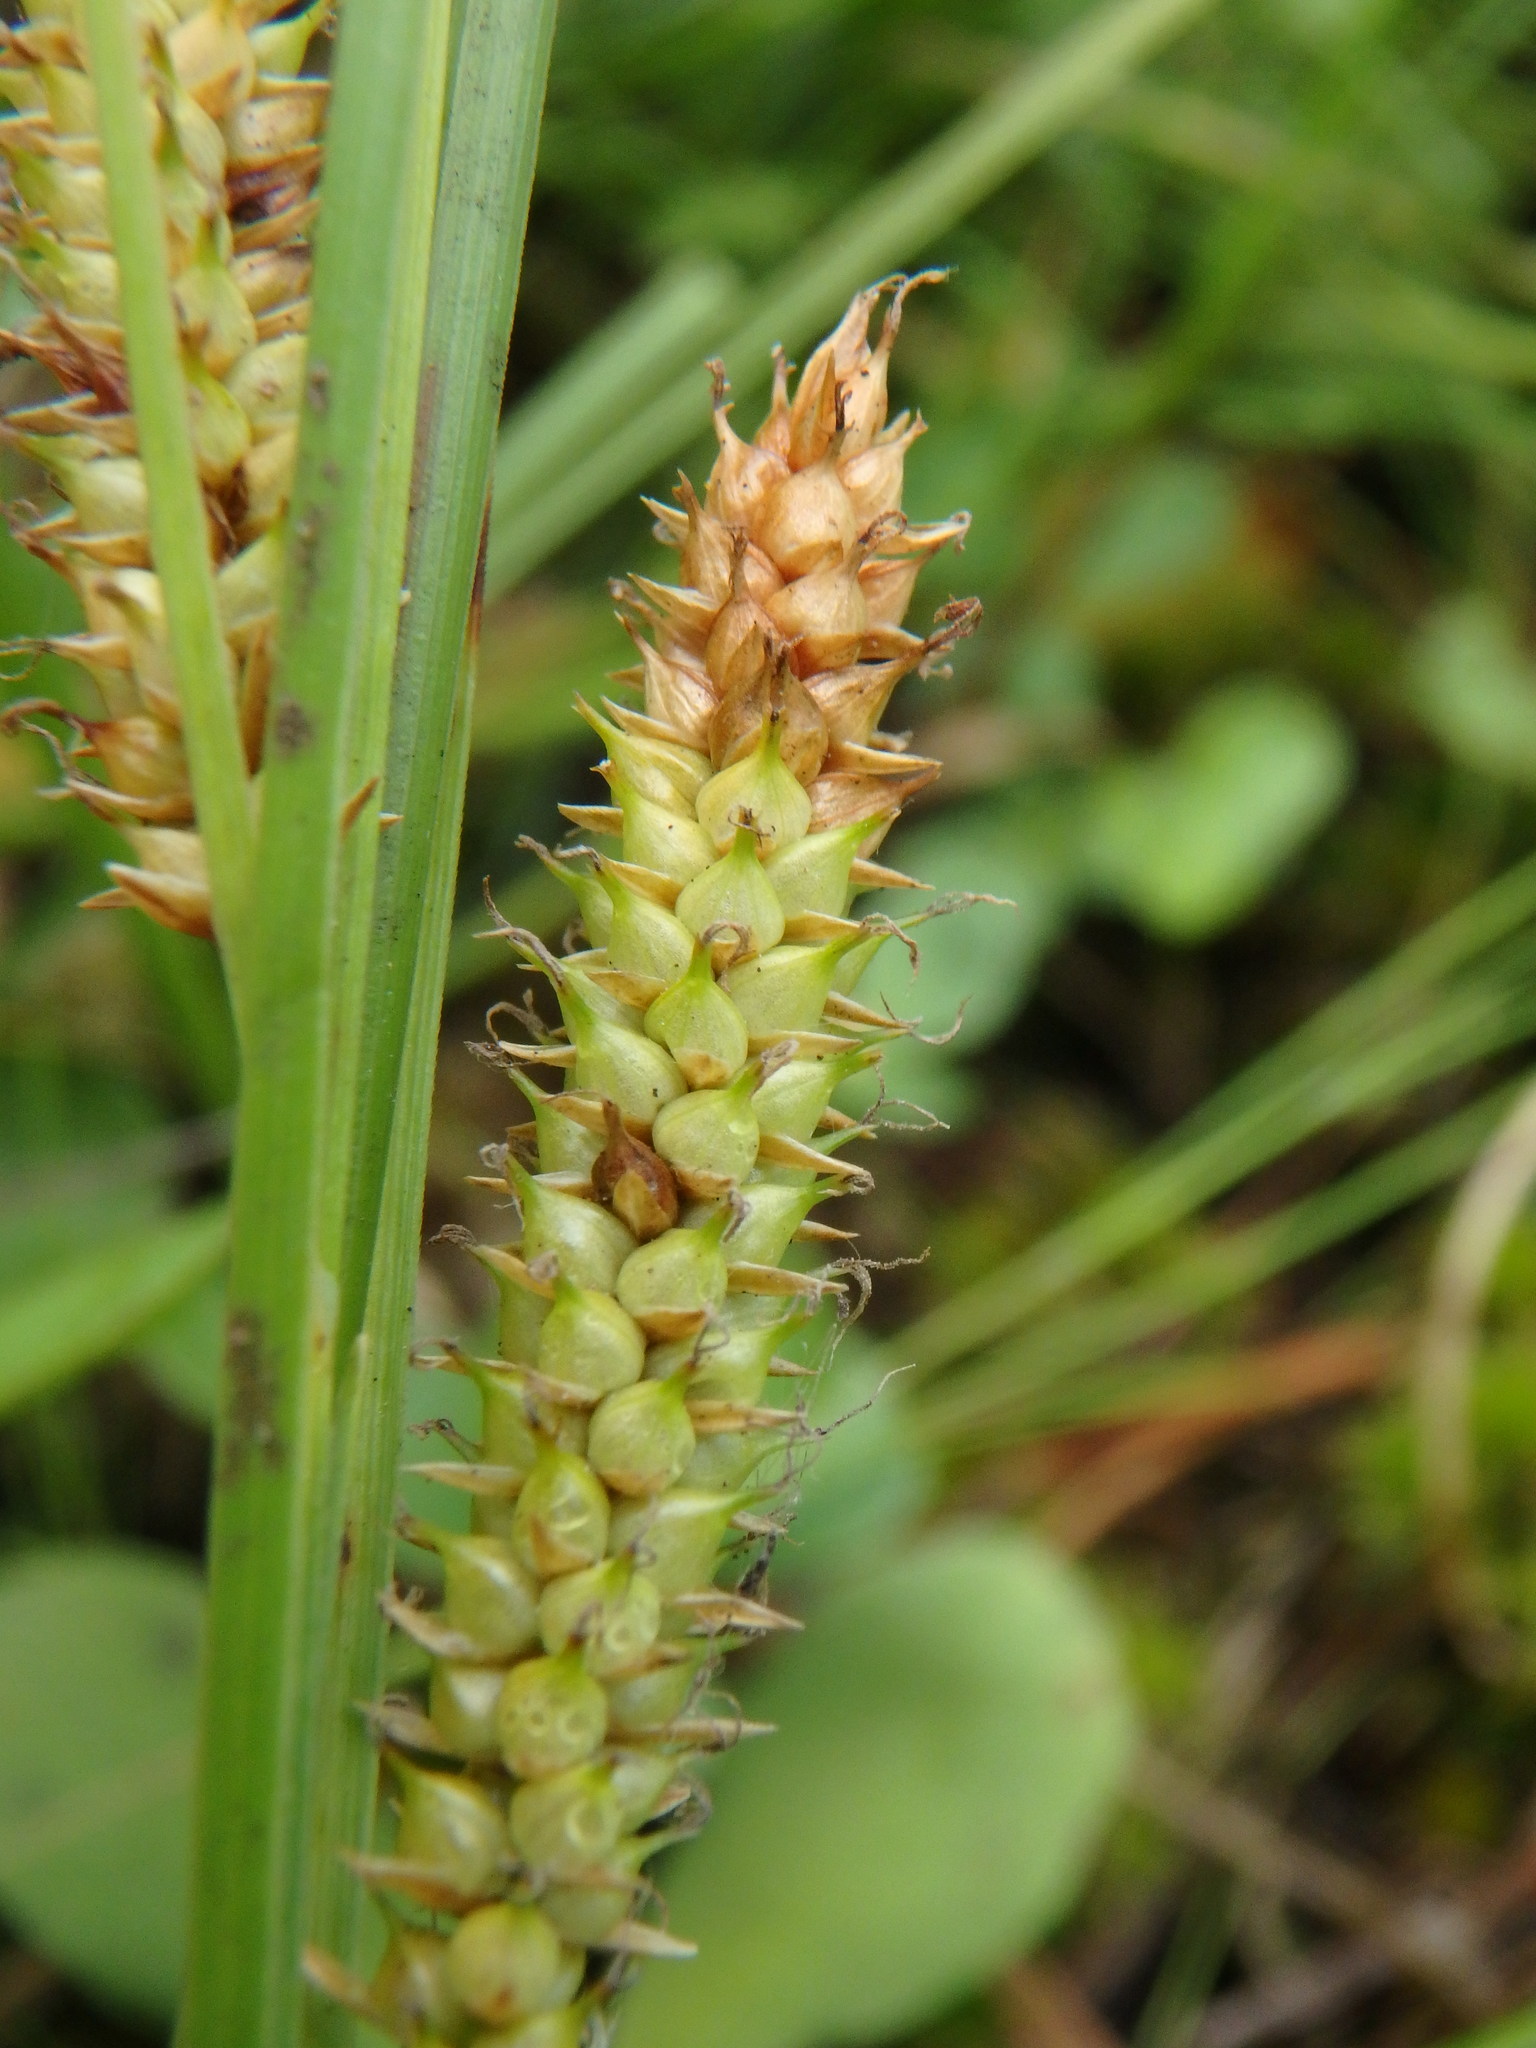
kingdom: Plantae
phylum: Tracheophyta
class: Liliopsida
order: Poales
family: Cyperaceae
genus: Carex
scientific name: Carex rostrata
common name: Bottle sedge
